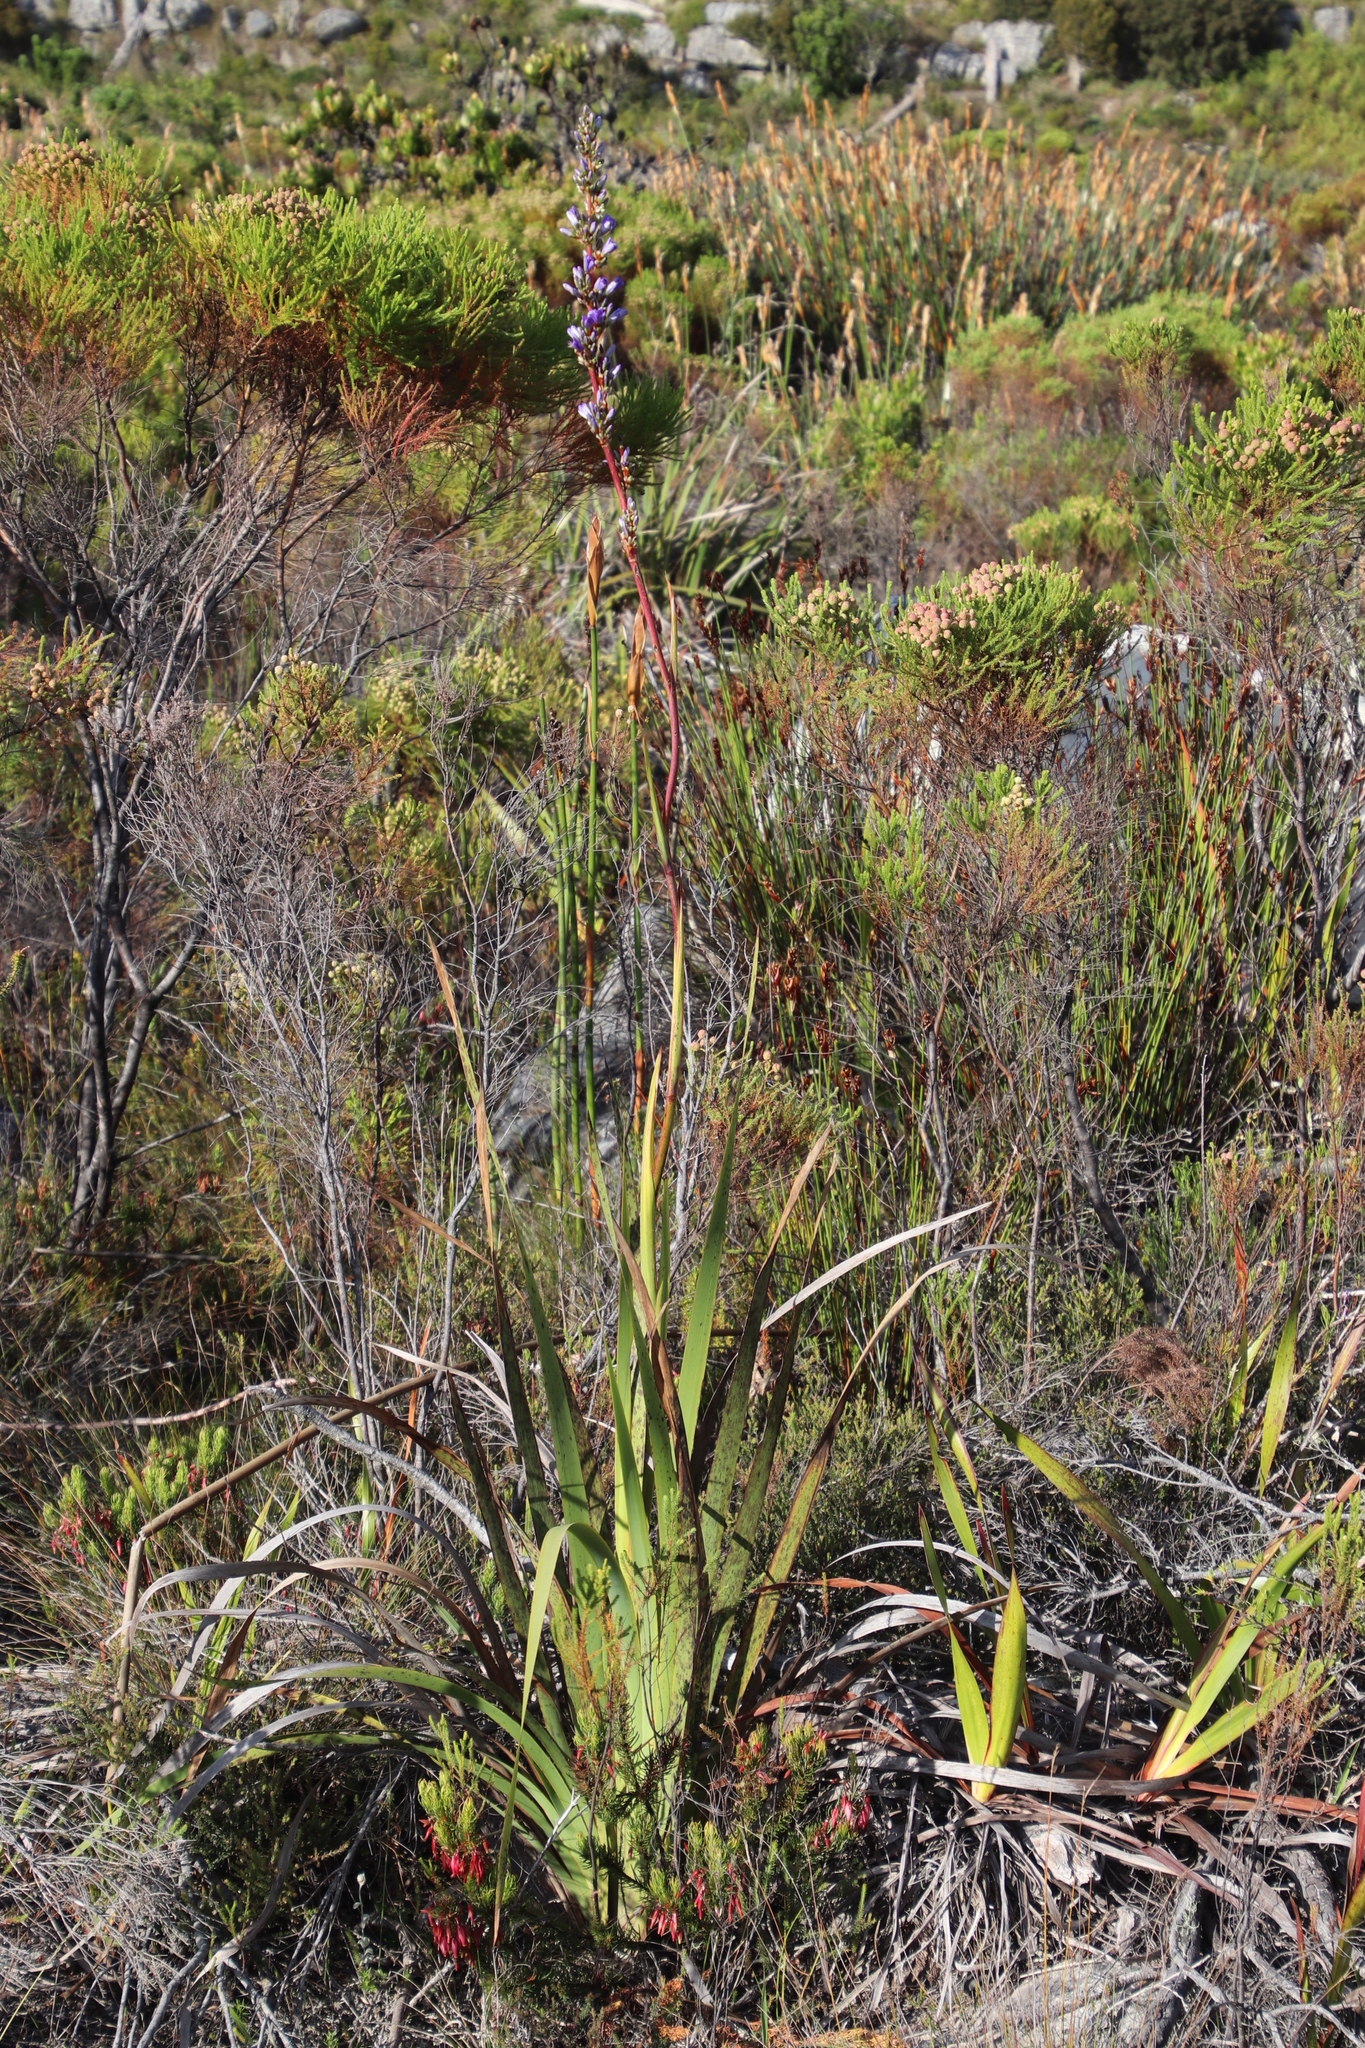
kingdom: Plantae
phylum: Tracheophyta
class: Liliopsida
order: Asparagales
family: Iridaceae
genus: Aristea
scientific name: Aristea bakeri
